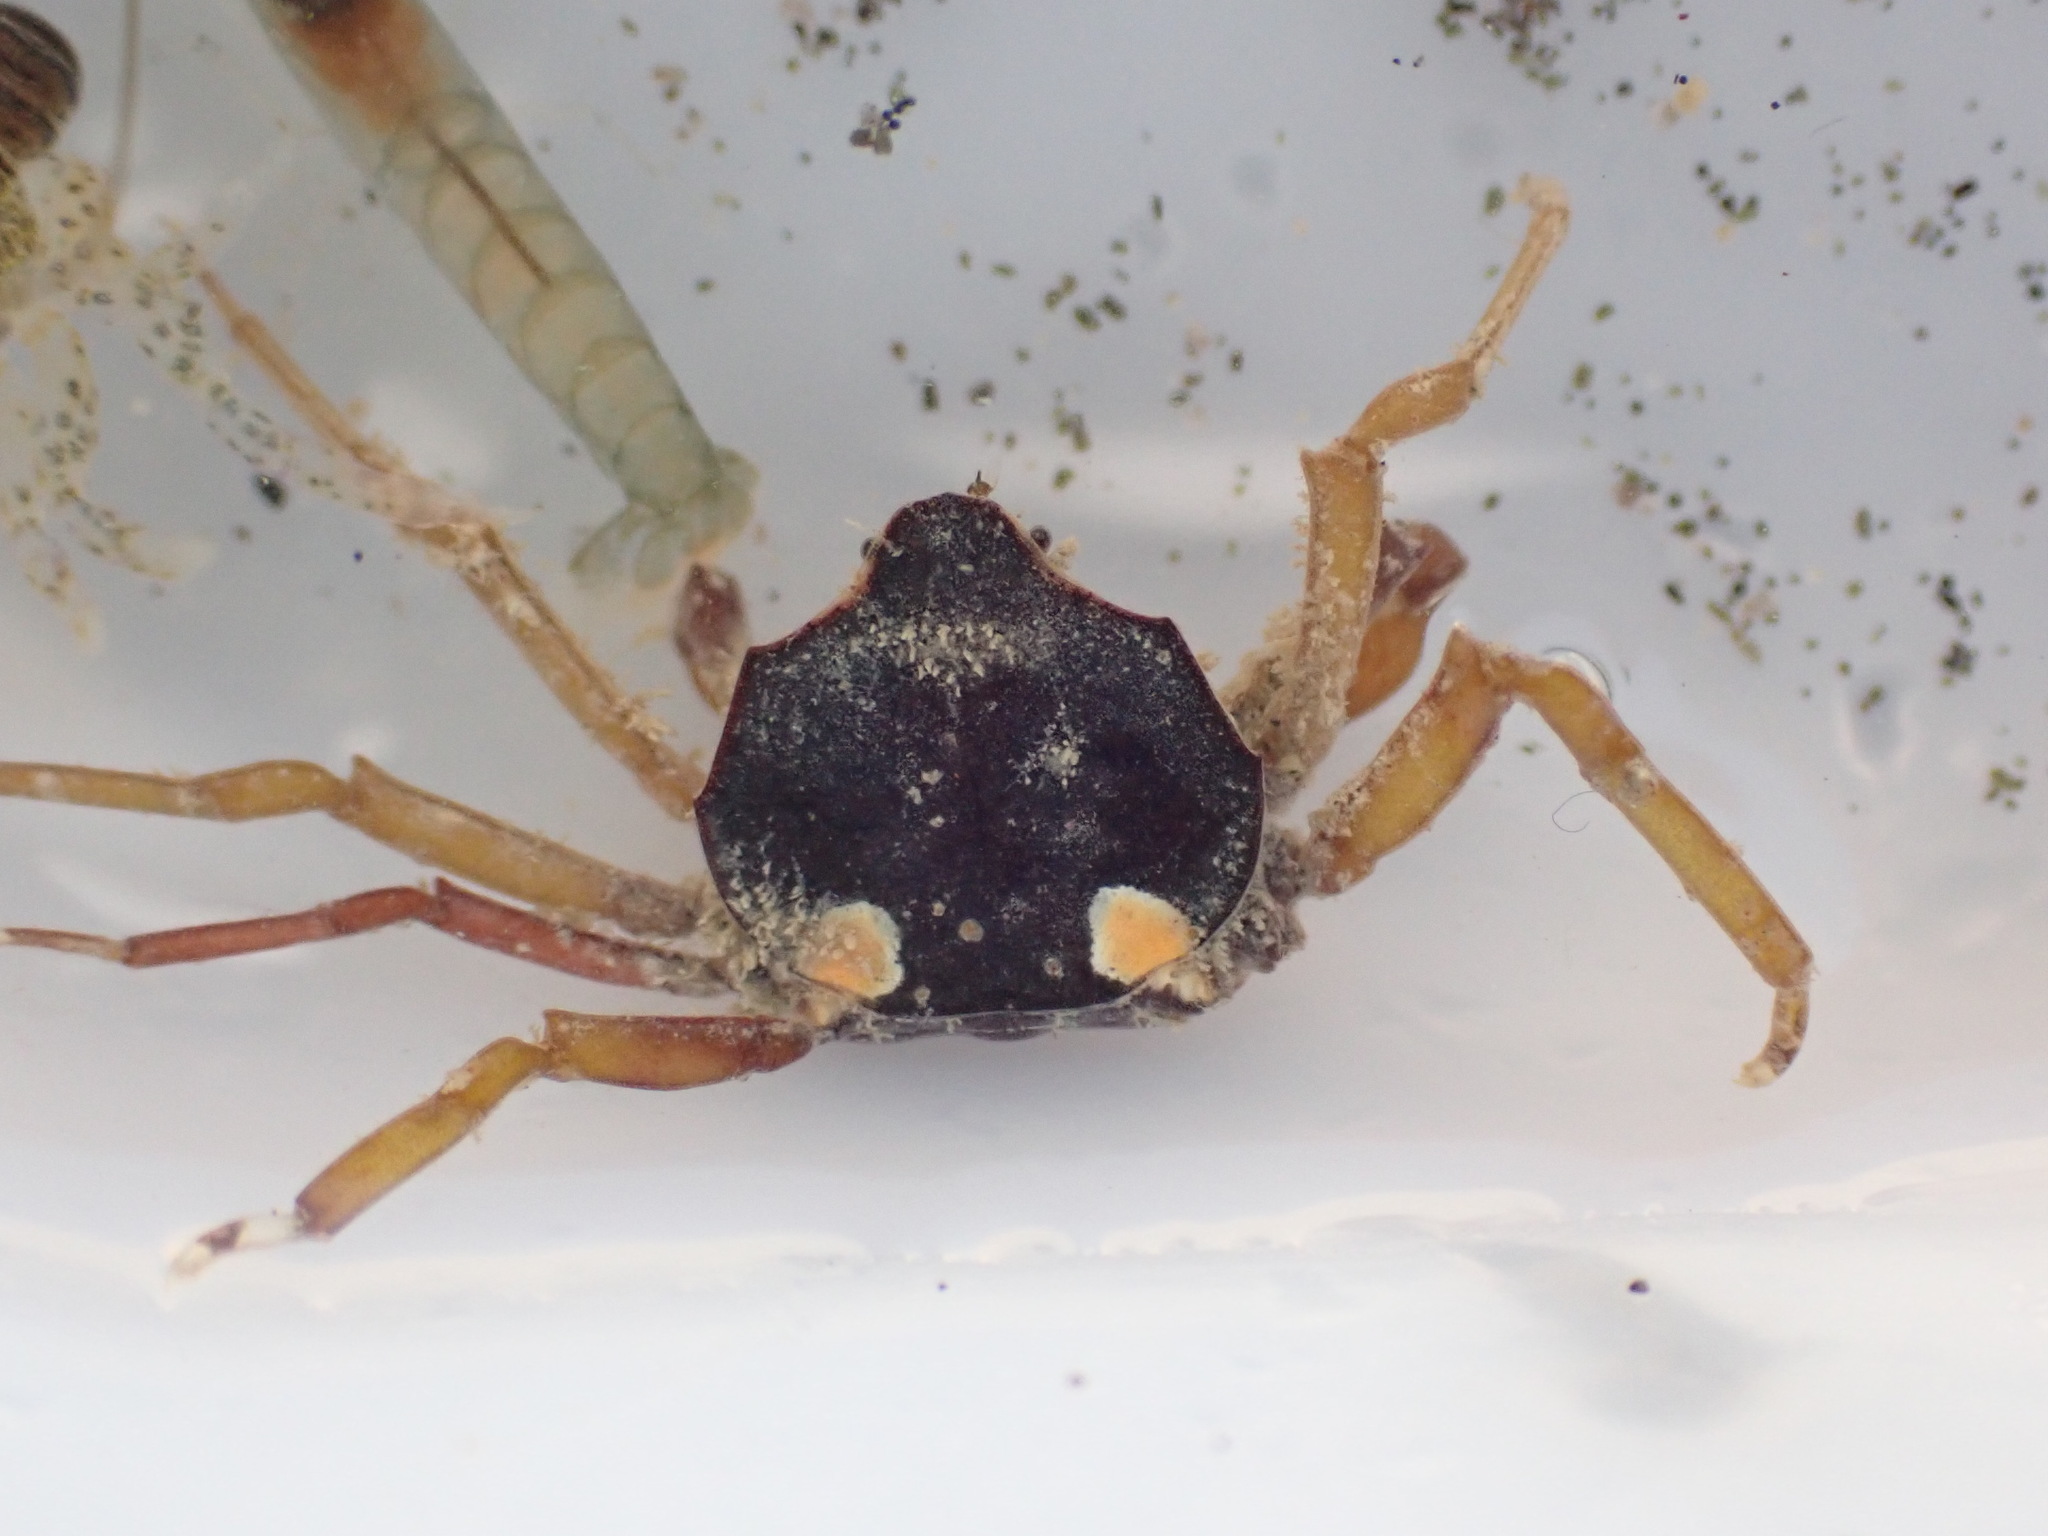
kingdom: Animalia
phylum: Arthropoda
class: Malacostraca
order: Decapoda
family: Hymenosomatidae
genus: Elamena
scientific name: Elamena producta
